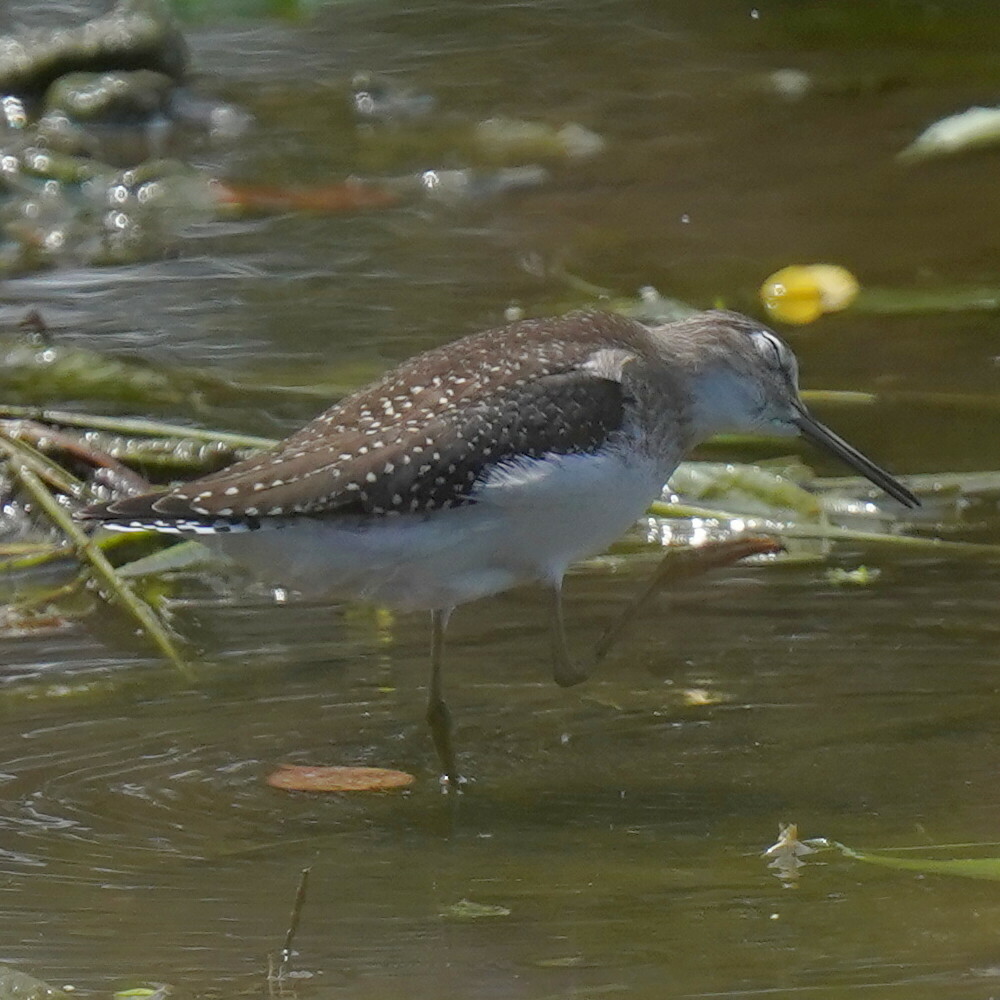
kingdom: Animalia
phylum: Chordata
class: Aves
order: Charadriiformes
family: Scolopacidae
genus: Tringa
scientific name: Tringa solitaria
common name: Solitary sandpiper
